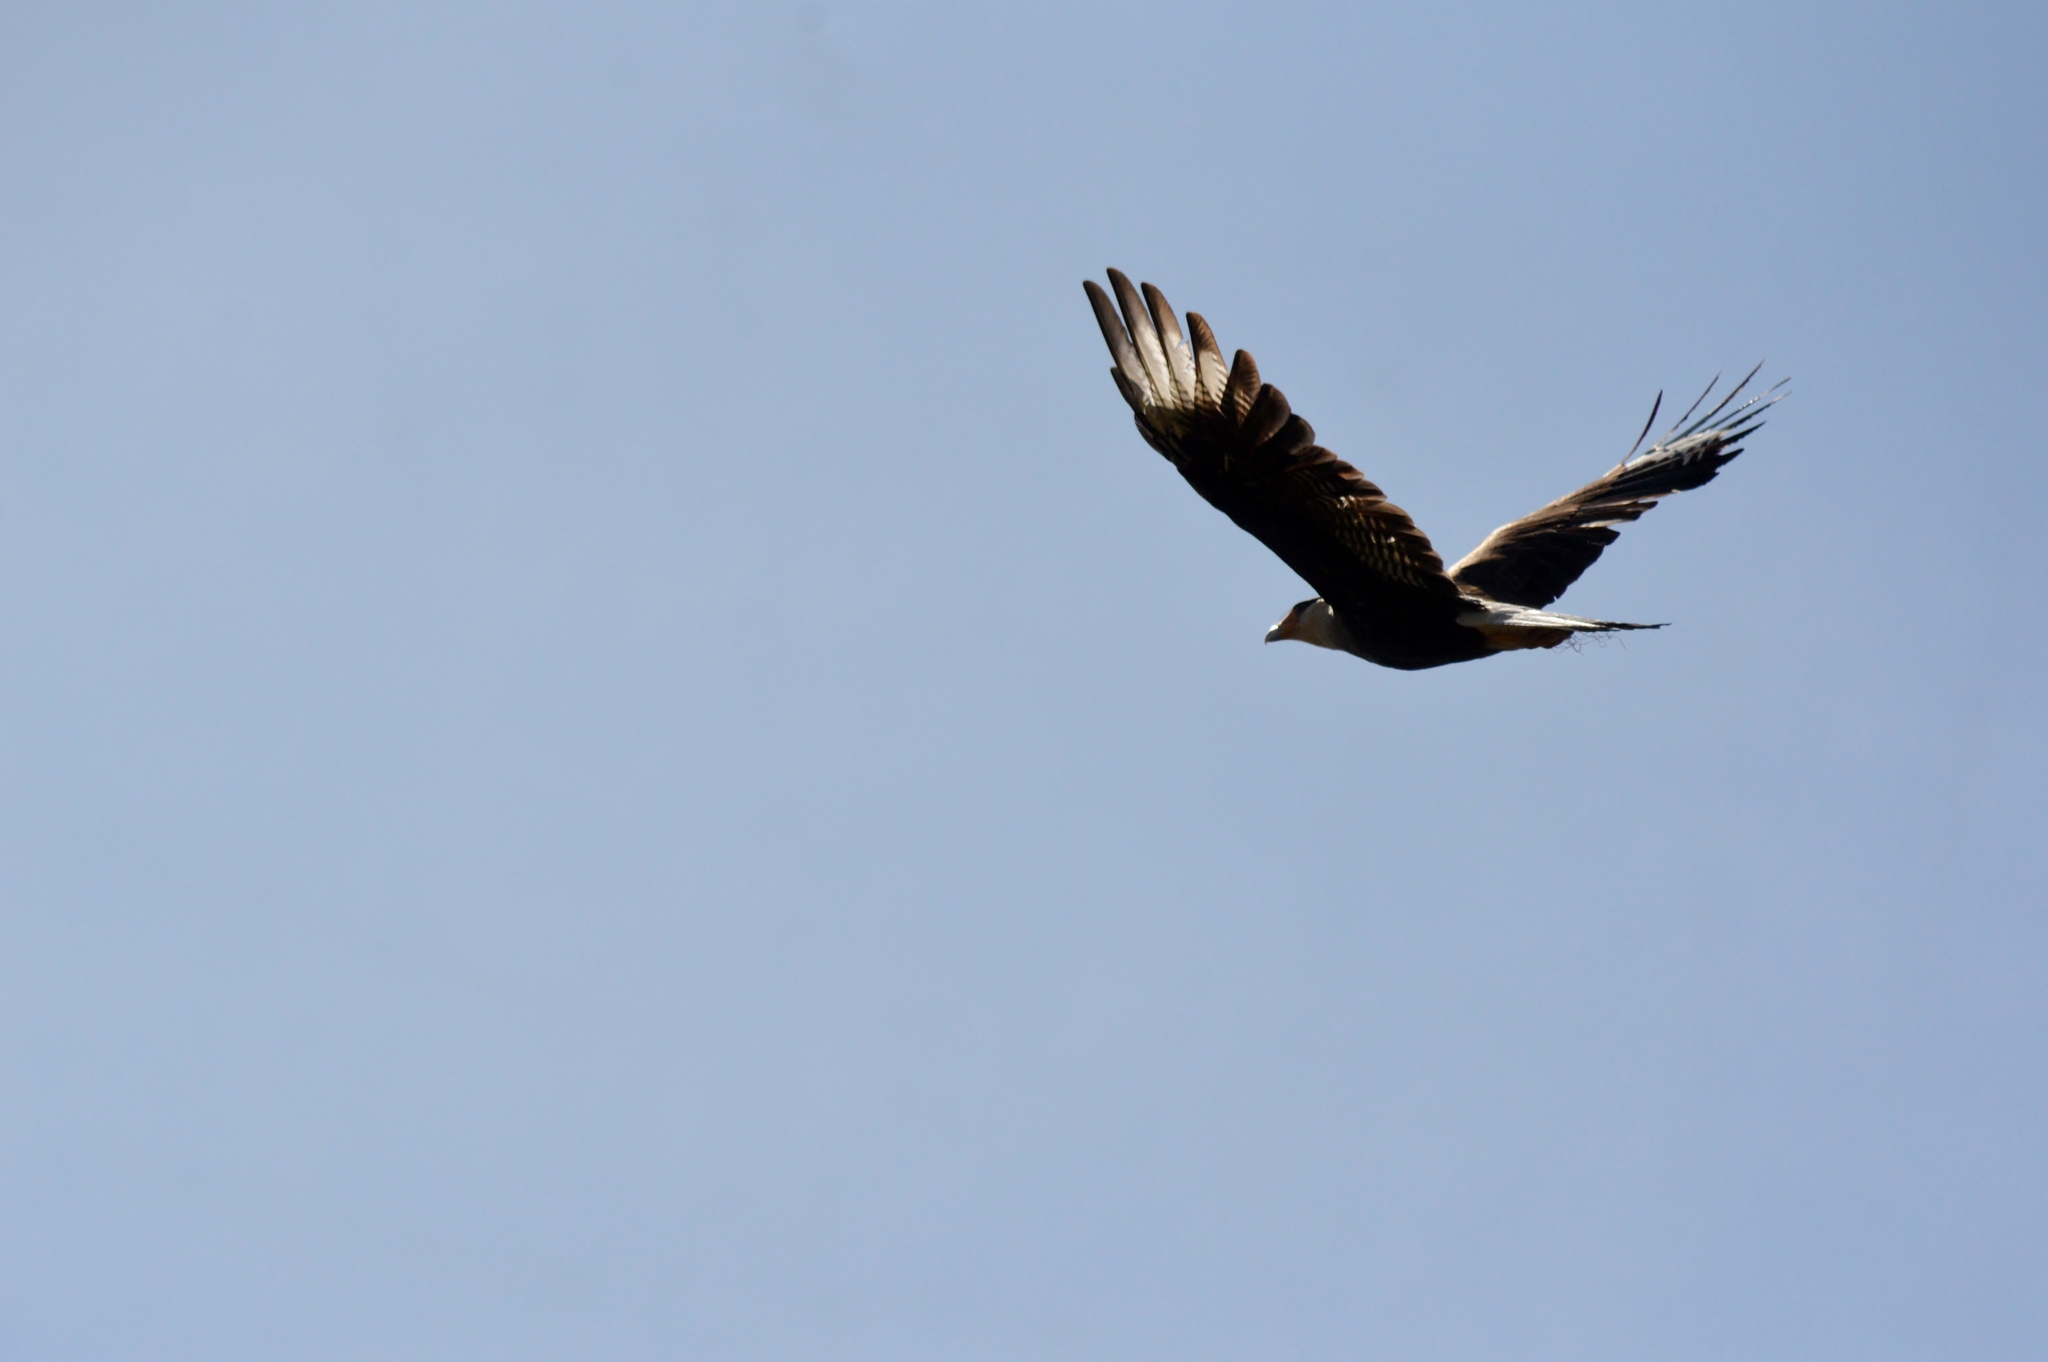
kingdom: Animalia
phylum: Chordata
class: Aves
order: Falconiformes
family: Falconidae
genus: Caracara
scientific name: Caracara plancus
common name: Southern caracara
